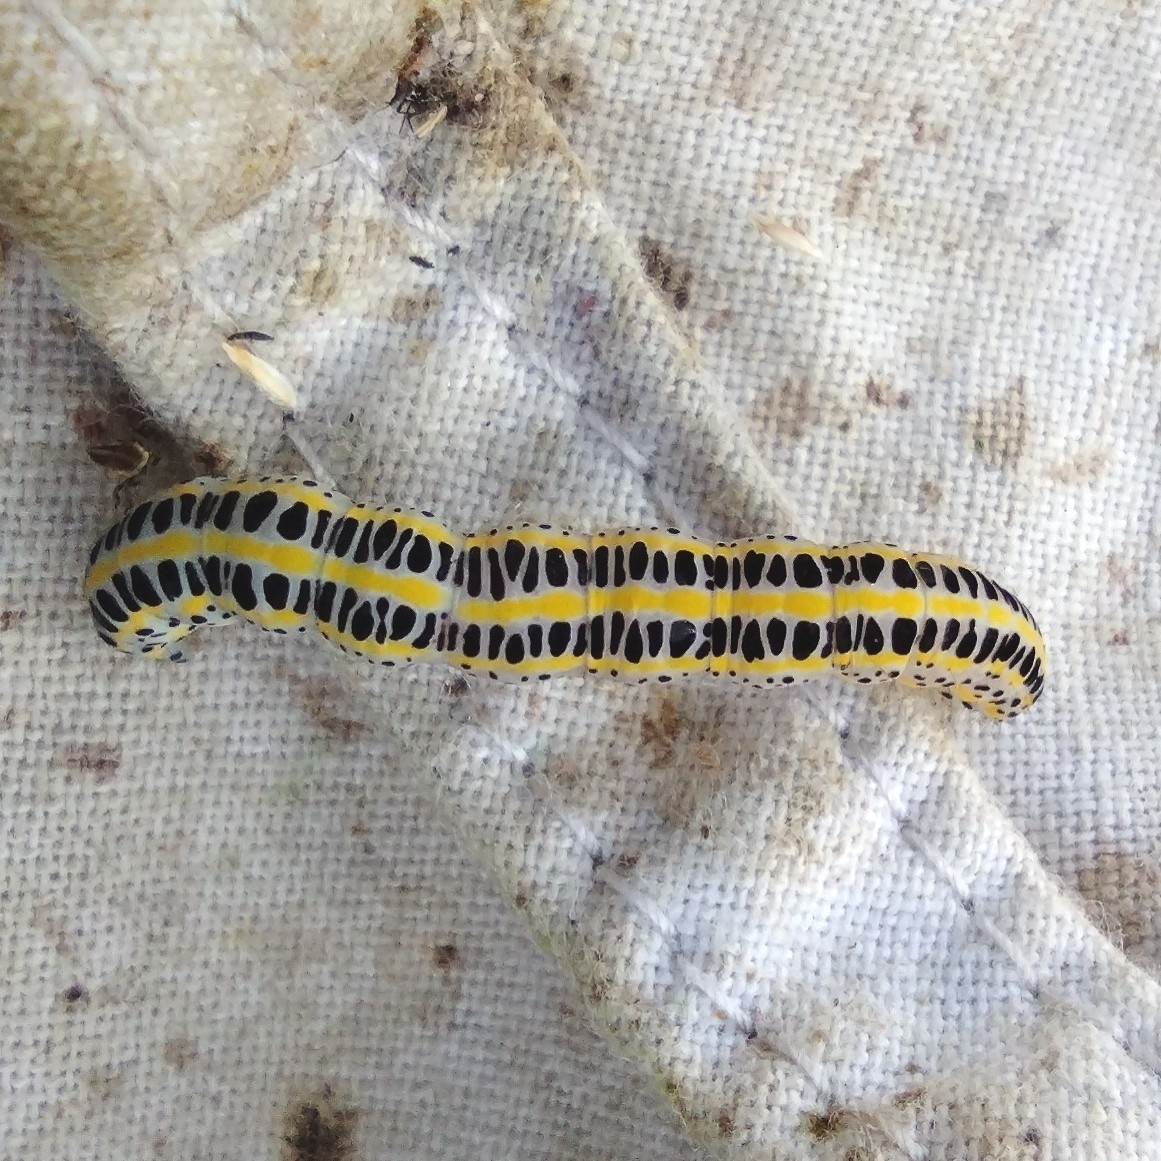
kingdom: Animalia
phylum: Arthropoda
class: Insecta
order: Lepidoptera
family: Noctuidae
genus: Calophasia
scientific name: Calophasia lunula
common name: Toadflax brocade
